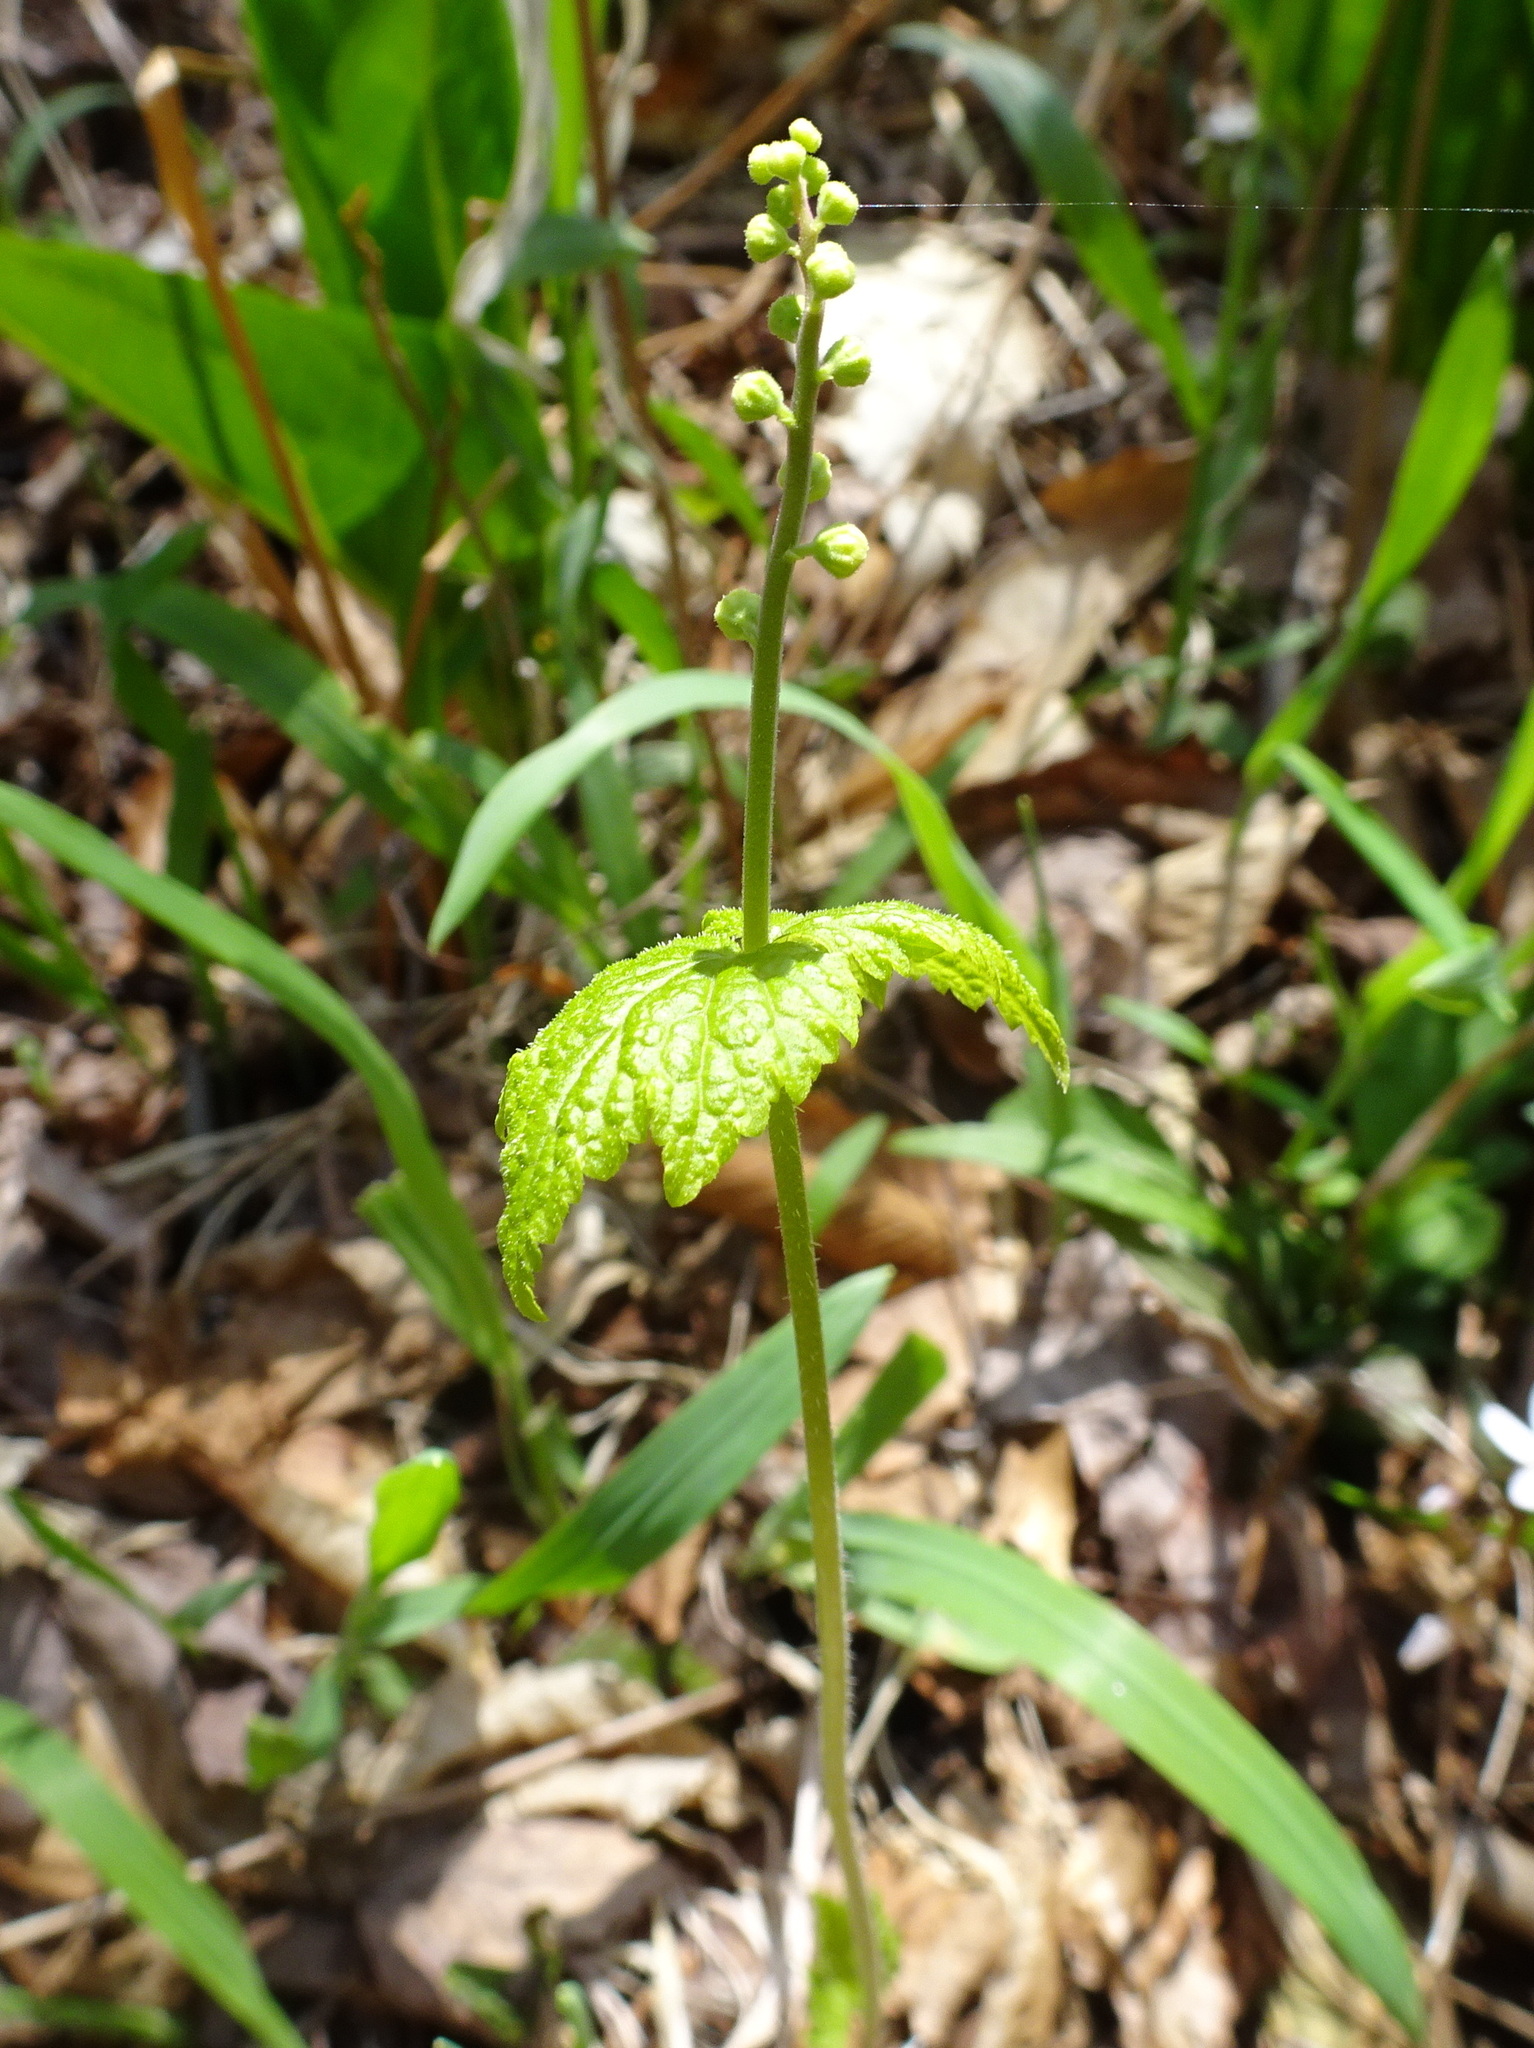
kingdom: Plantae
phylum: Tracheophyta
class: Magnoliopsida
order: Saxifragales
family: Saxifragaceae
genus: Mitella
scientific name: Mitella diphylla
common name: Coolwort
